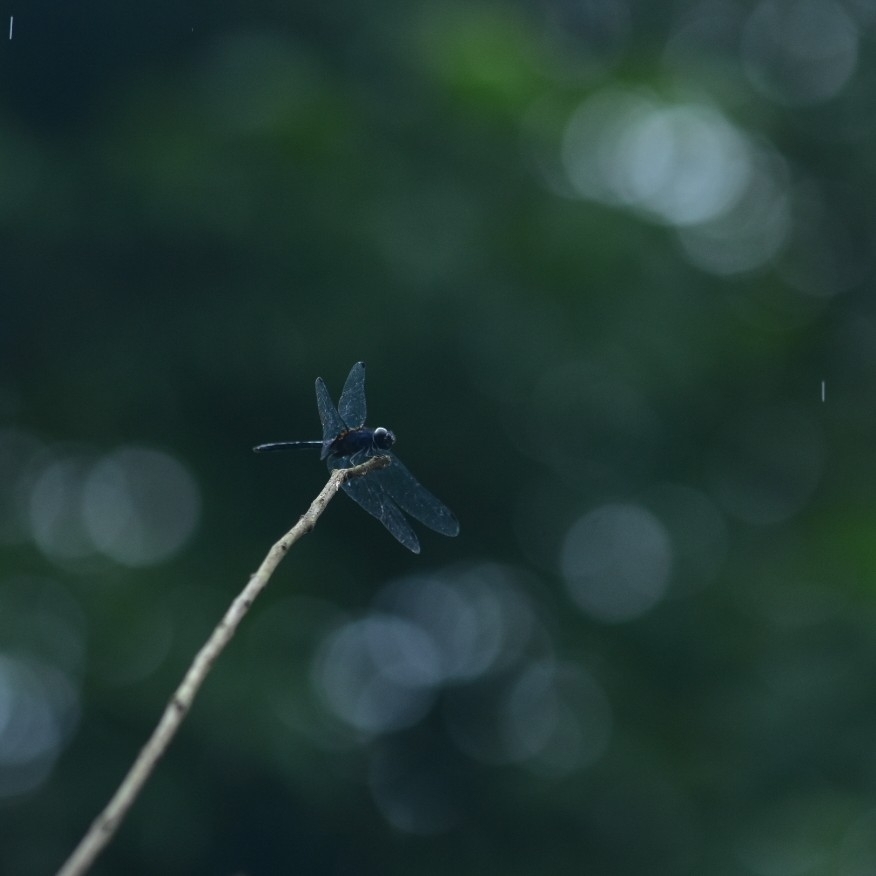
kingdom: Animalia
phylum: Arthropoda
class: Insecta
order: Odonata
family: Libellulidae
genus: Trithemis
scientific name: Trithemis festiva
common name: Indigo dropwing
